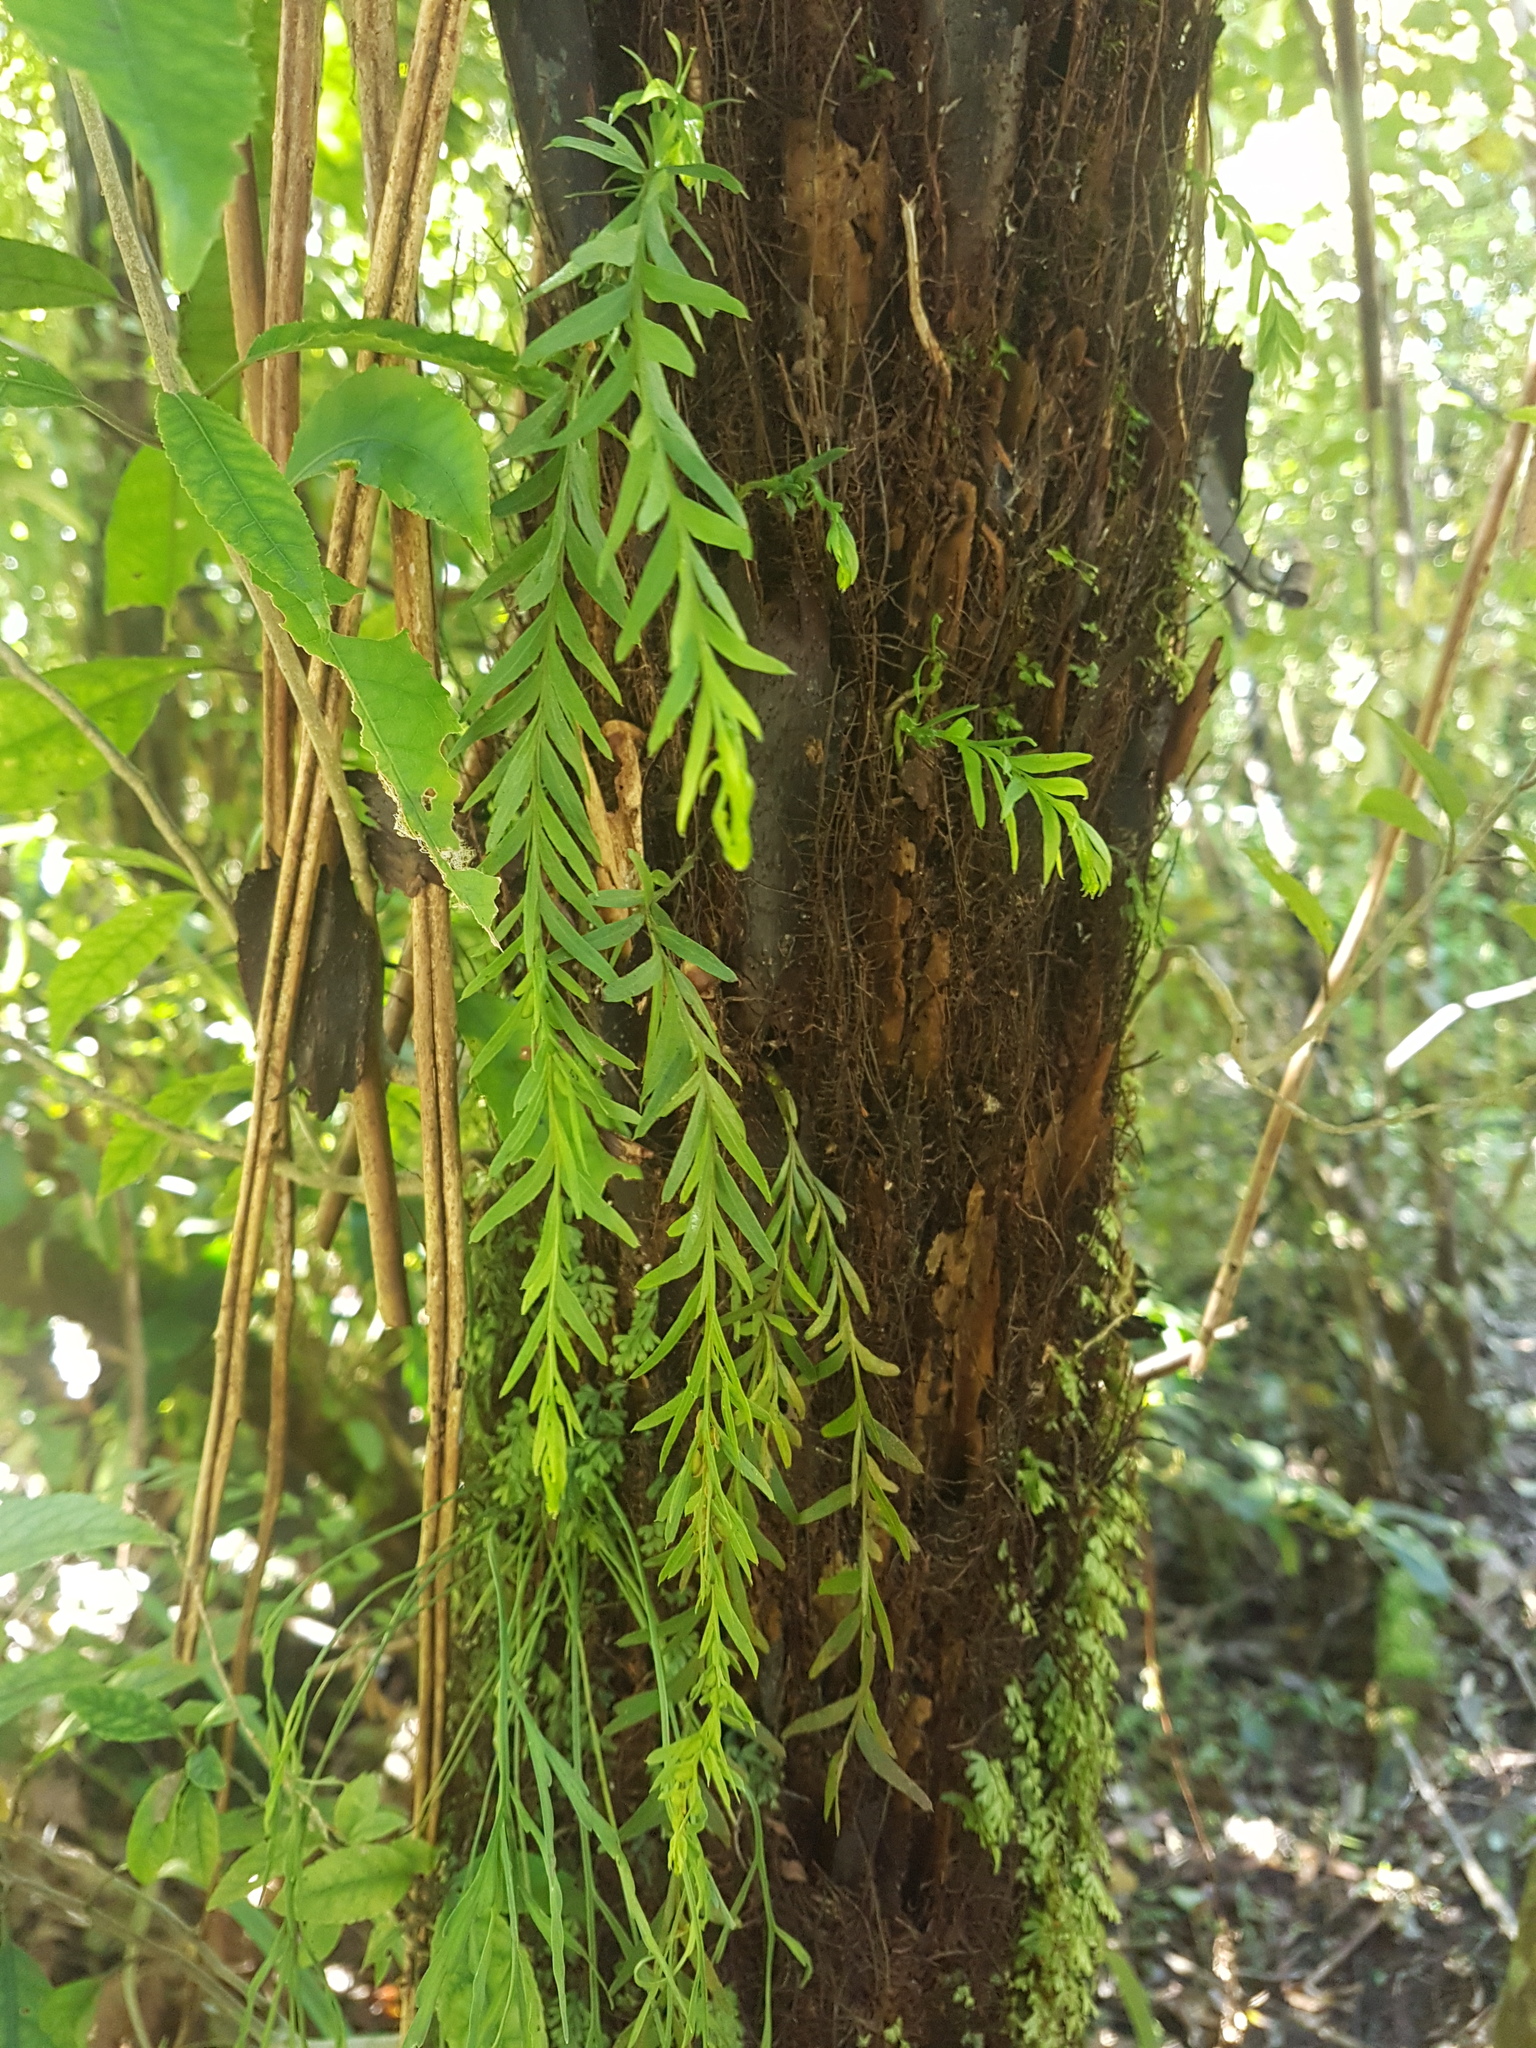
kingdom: Plantae
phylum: Tracheophyta
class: Polypodiopsida
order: Psilotales
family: Psilotaceae
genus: Tmesipteris
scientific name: Tmesipteris tannensis
